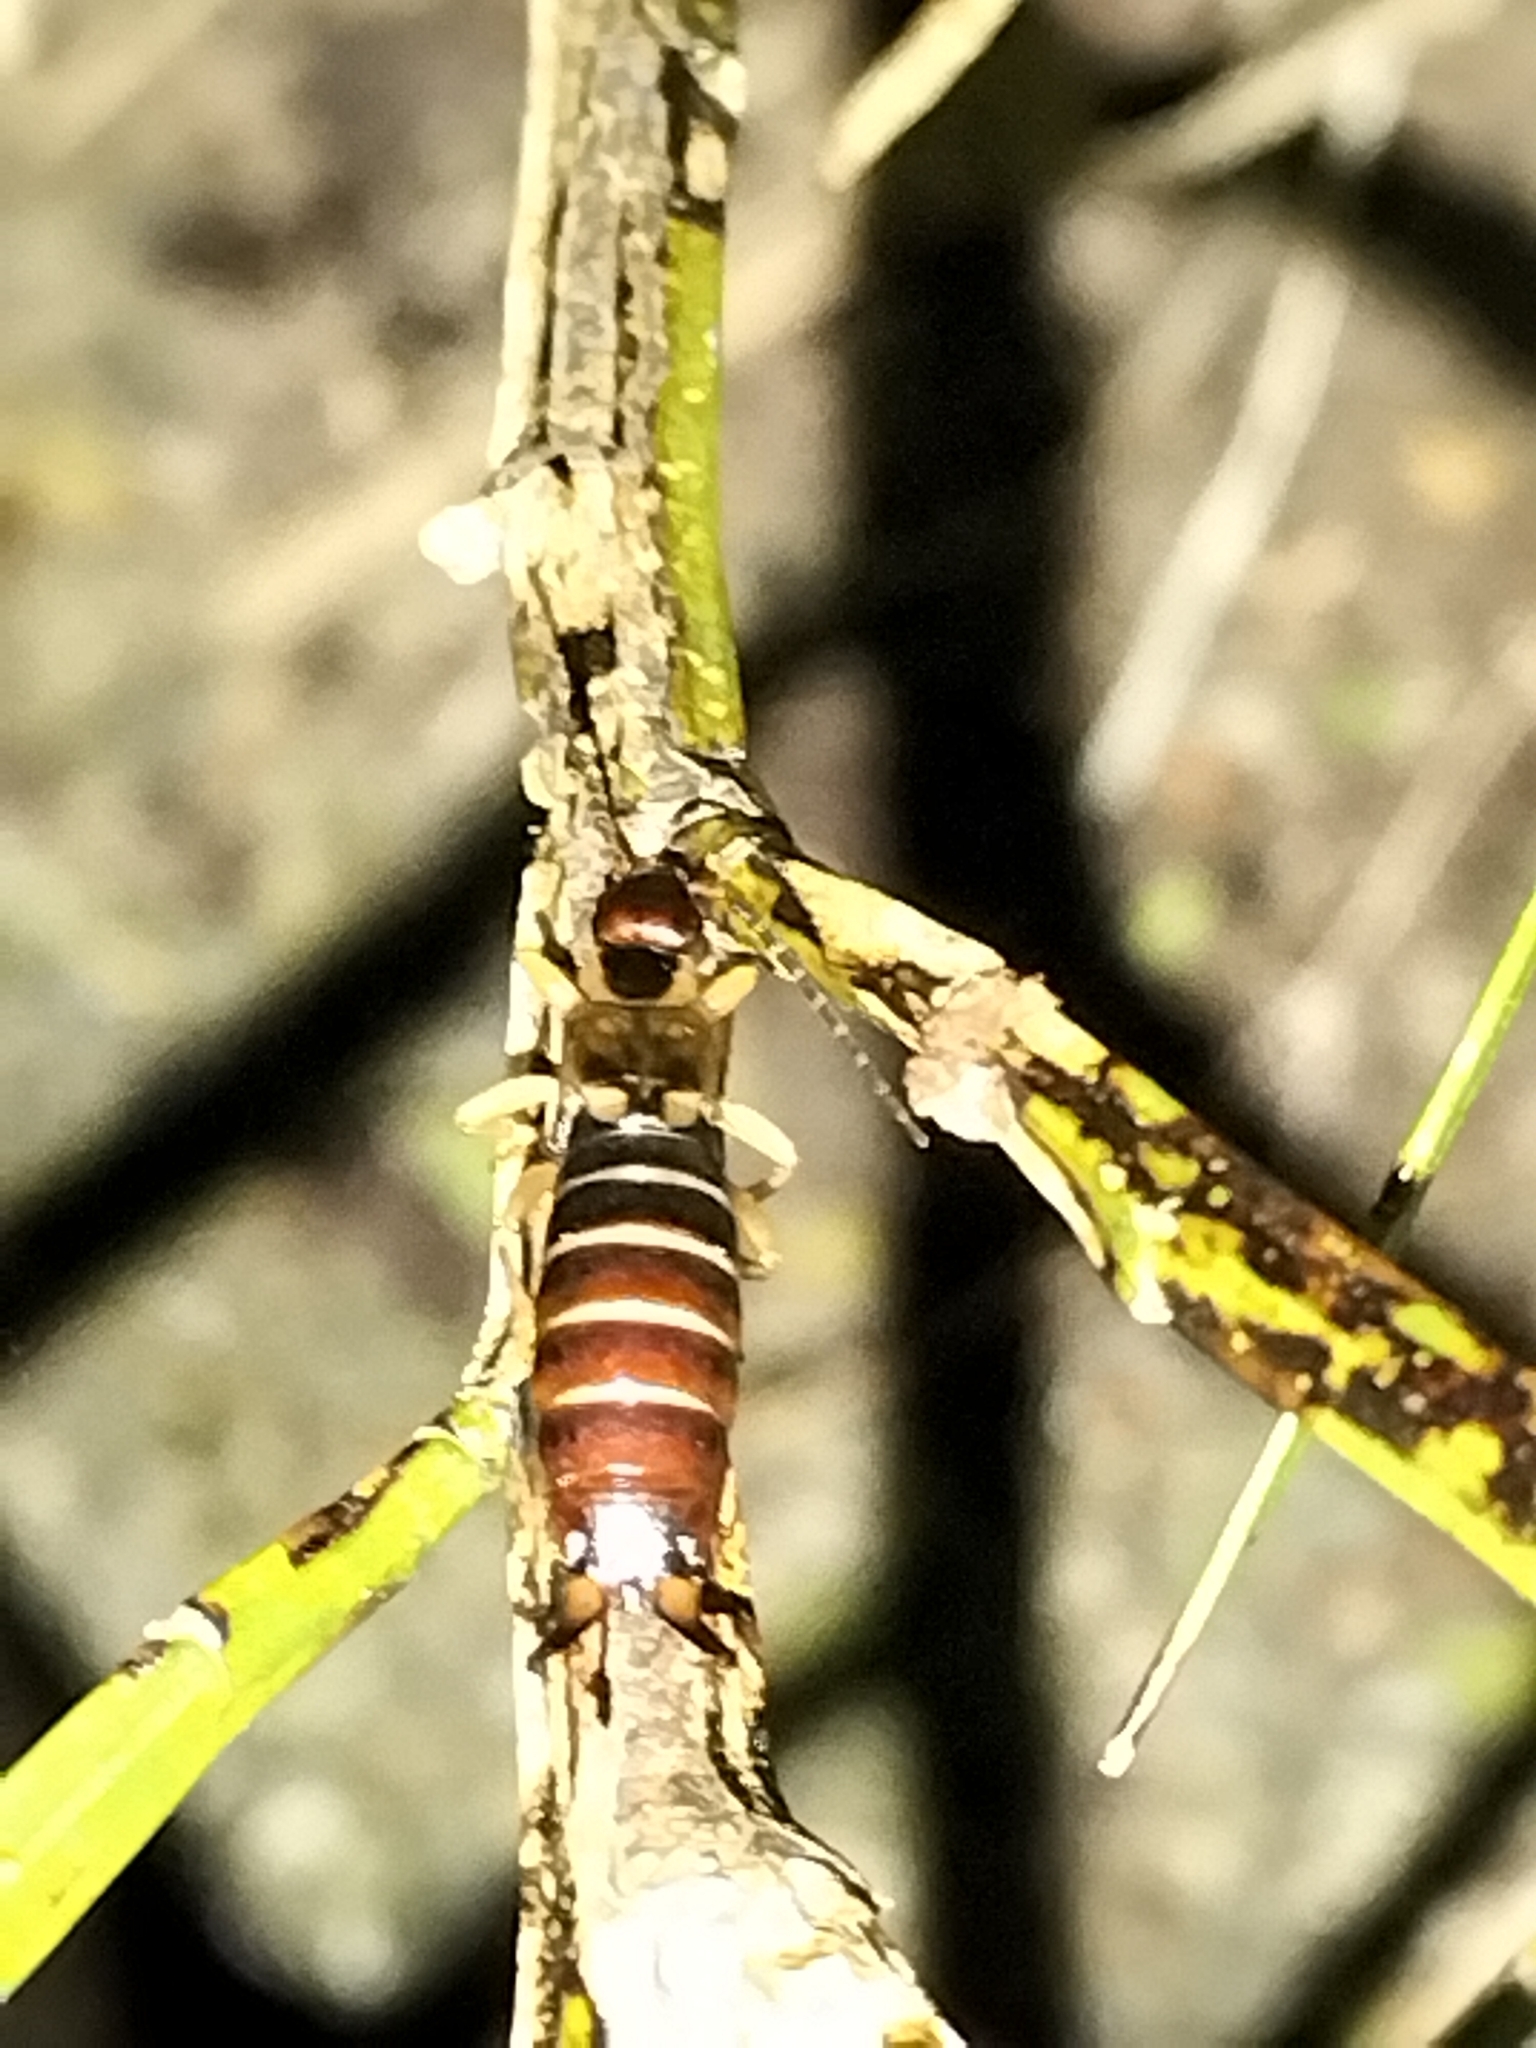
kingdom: Animalia
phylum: Arthropoda
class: Insecta
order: Dermaptera
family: Forficulidae
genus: Forficula
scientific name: Forficula dentata
